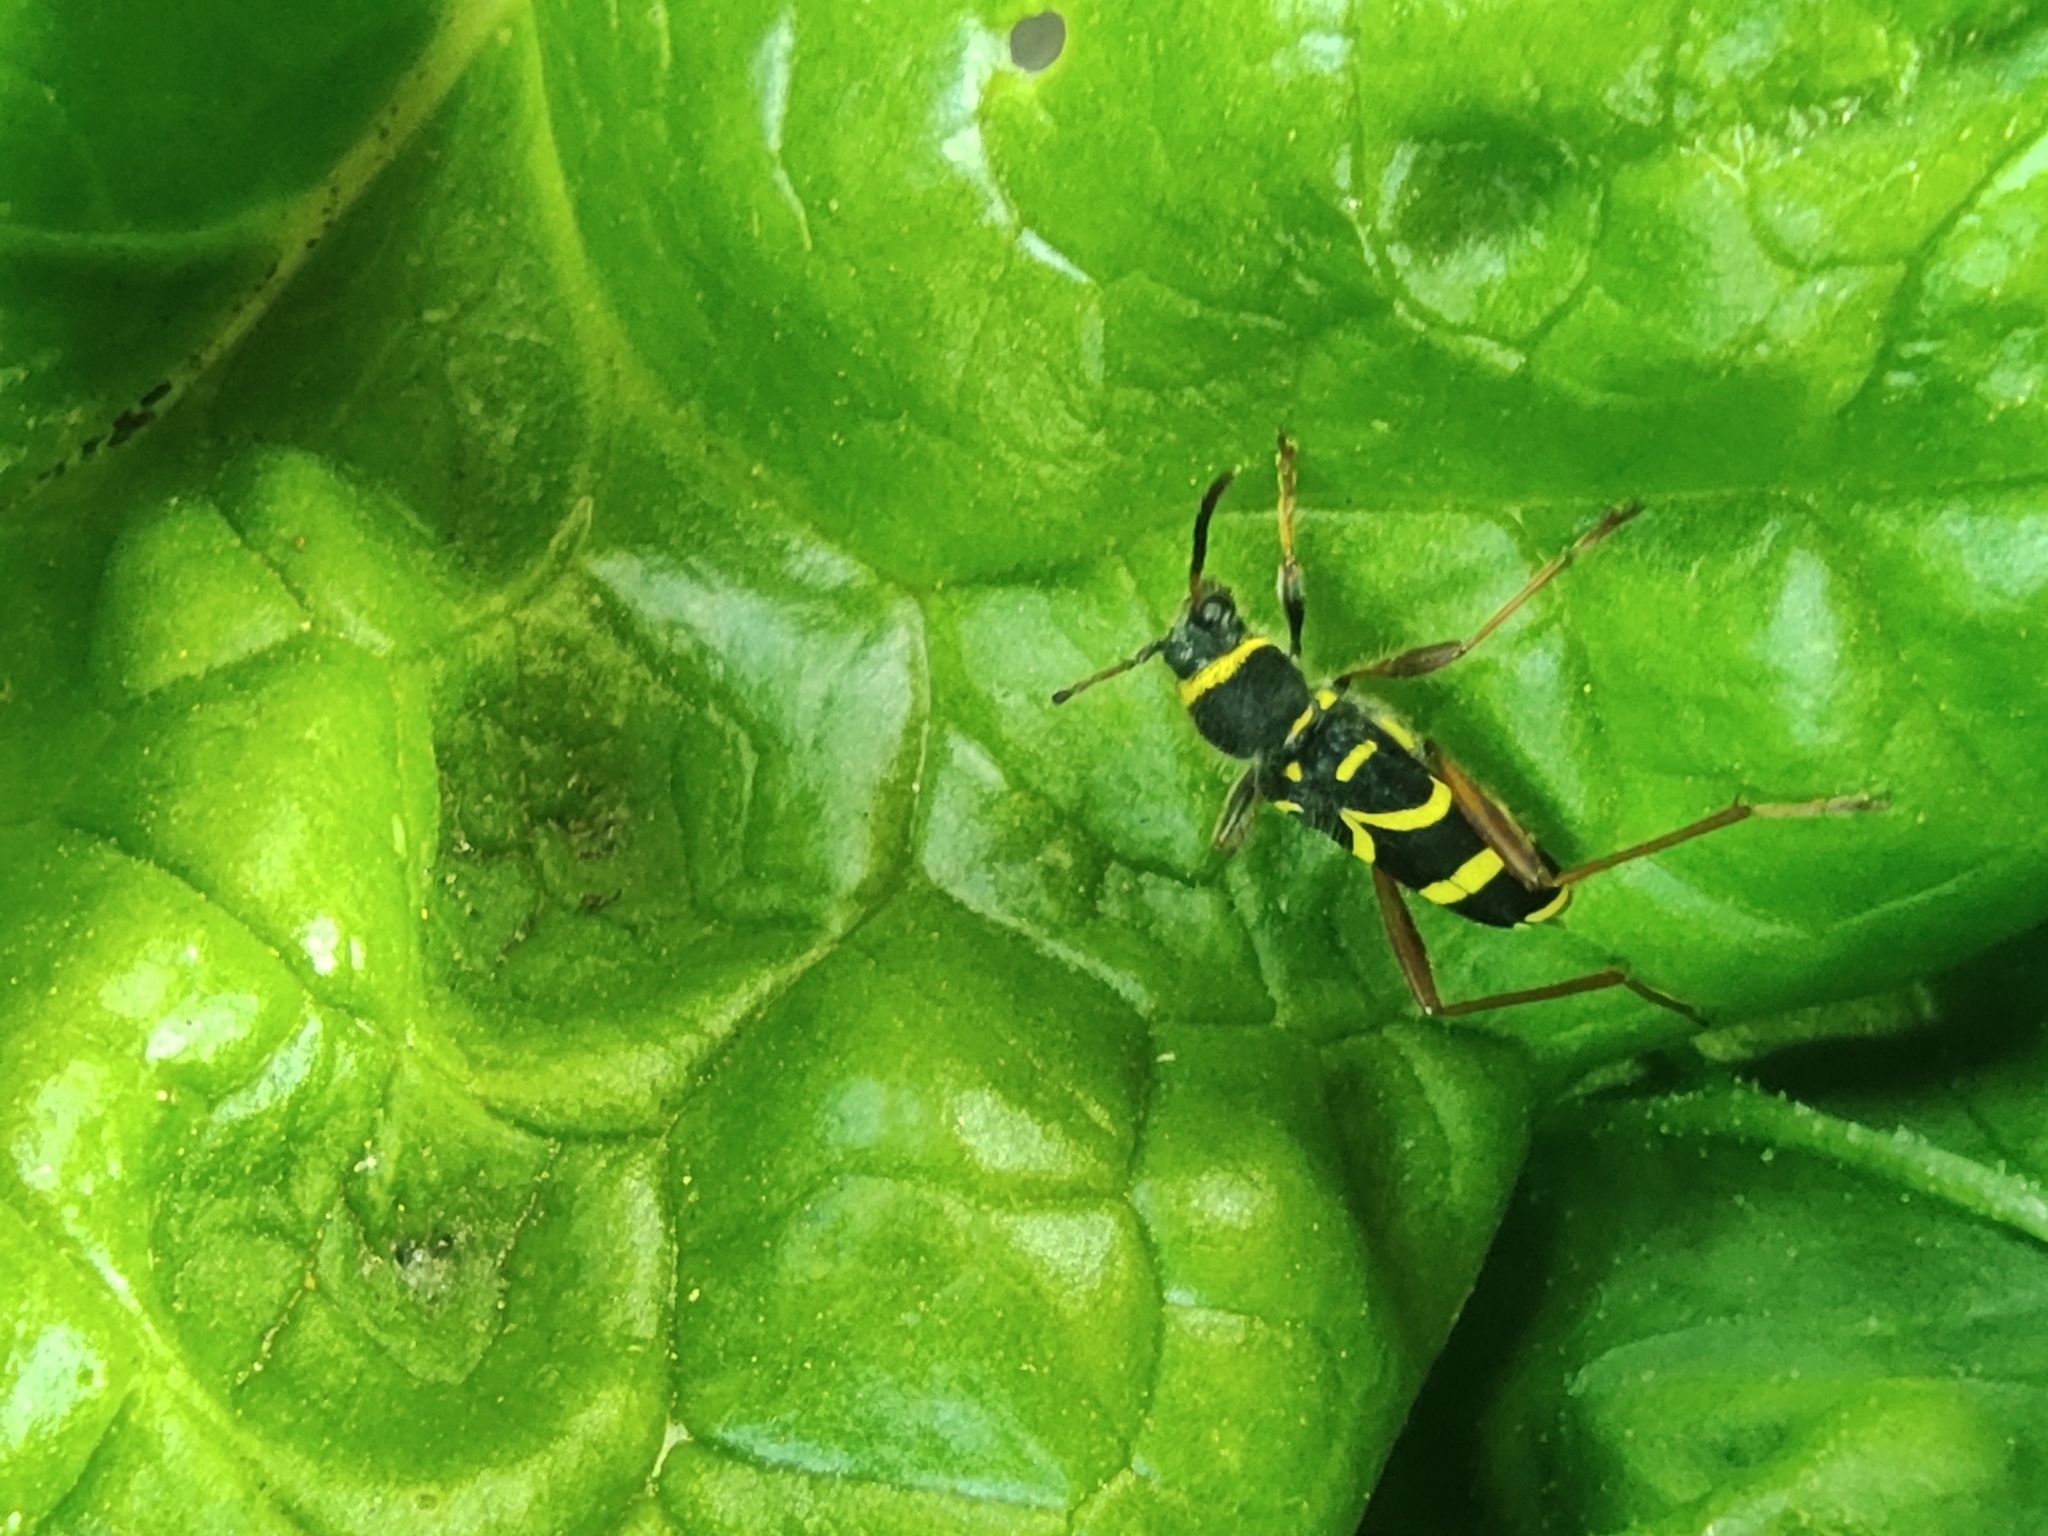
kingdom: Animalia
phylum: Arthropoda
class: Insecta
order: Coleoptera
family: Cerambycidae
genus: Clytus
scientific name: Clytus arietis
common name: Wasp beetle
